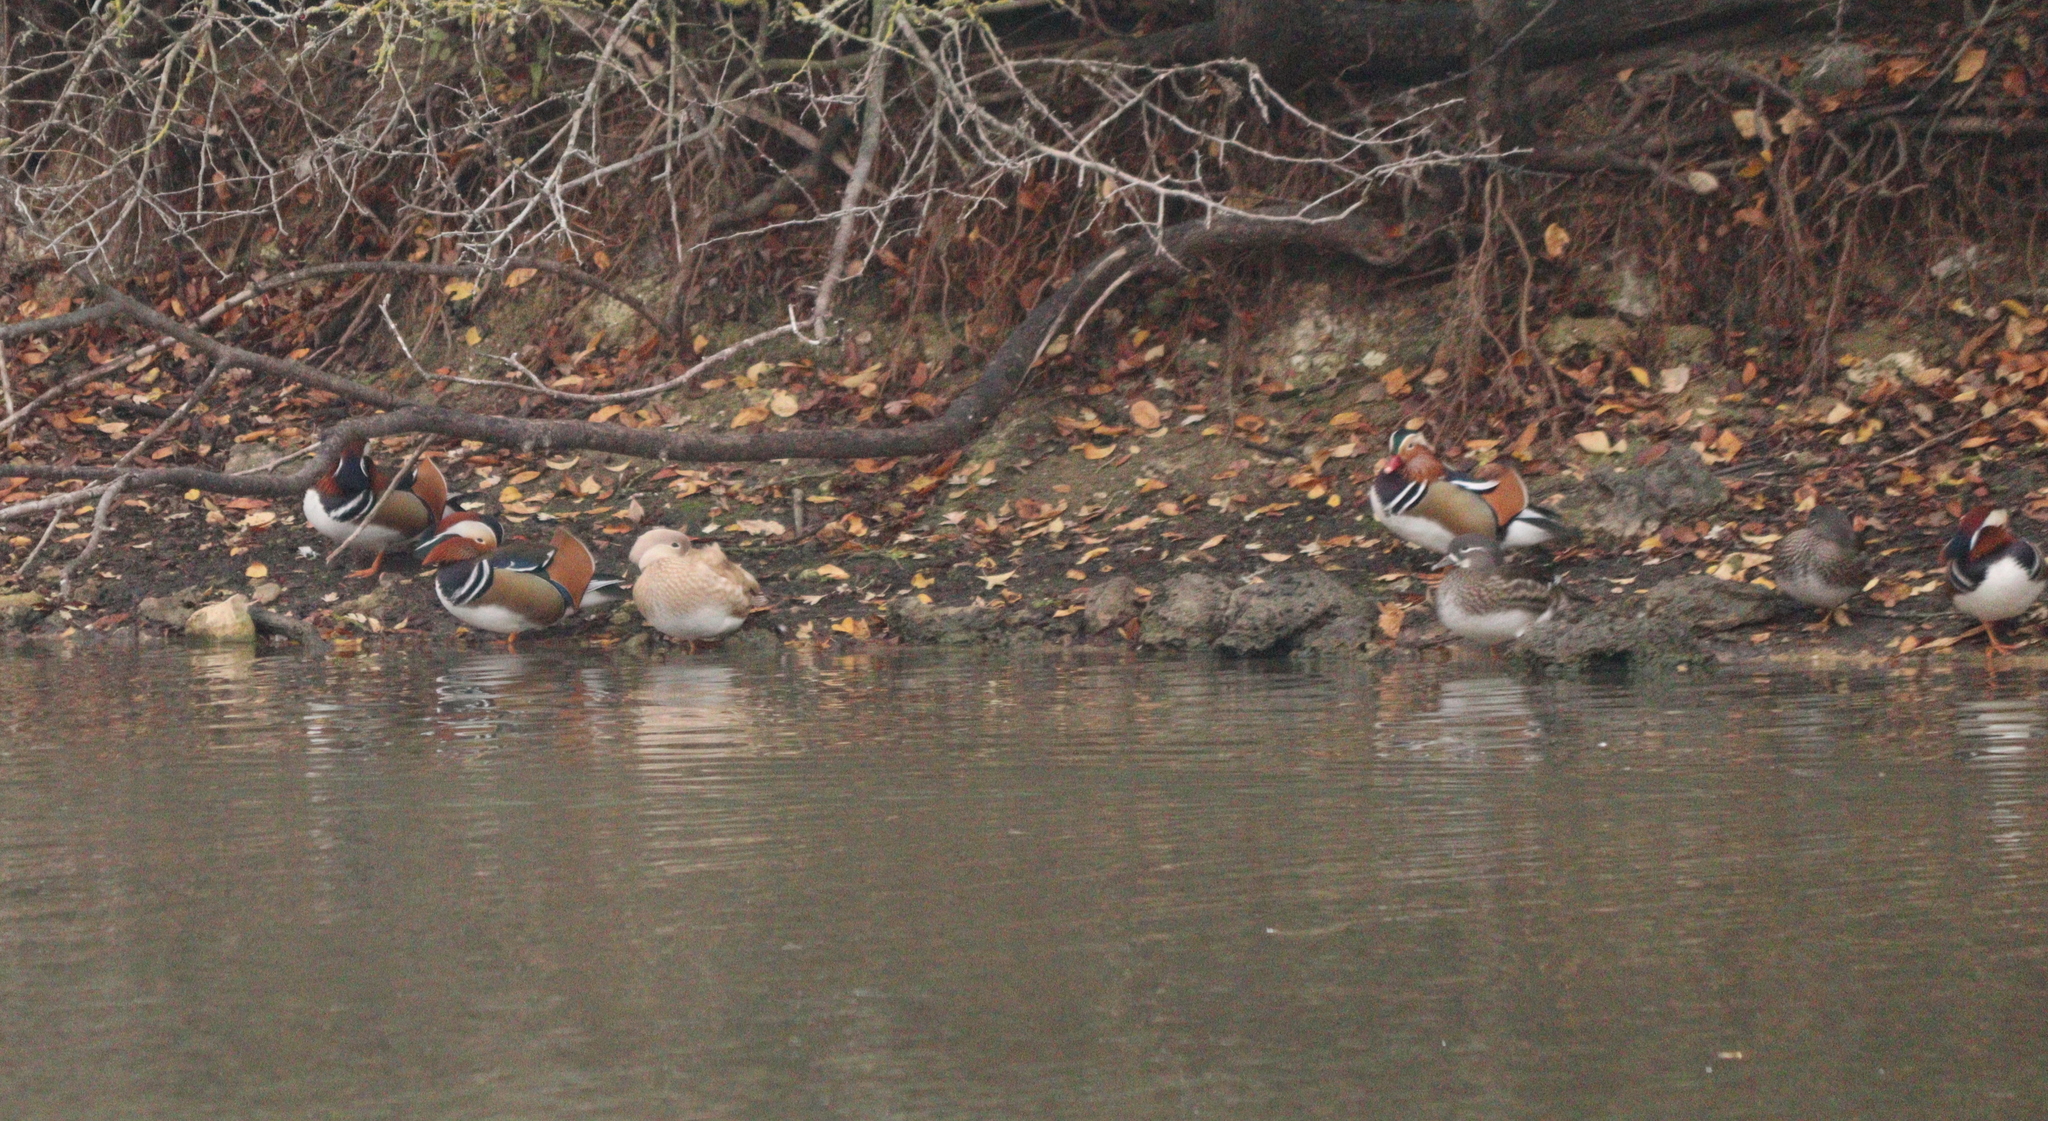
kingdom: Animalia
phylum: Chordata
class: Aves
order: Anseriformes
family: Anatidae
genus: Aix
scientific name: Aix galericulata
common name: Mandarin duck
